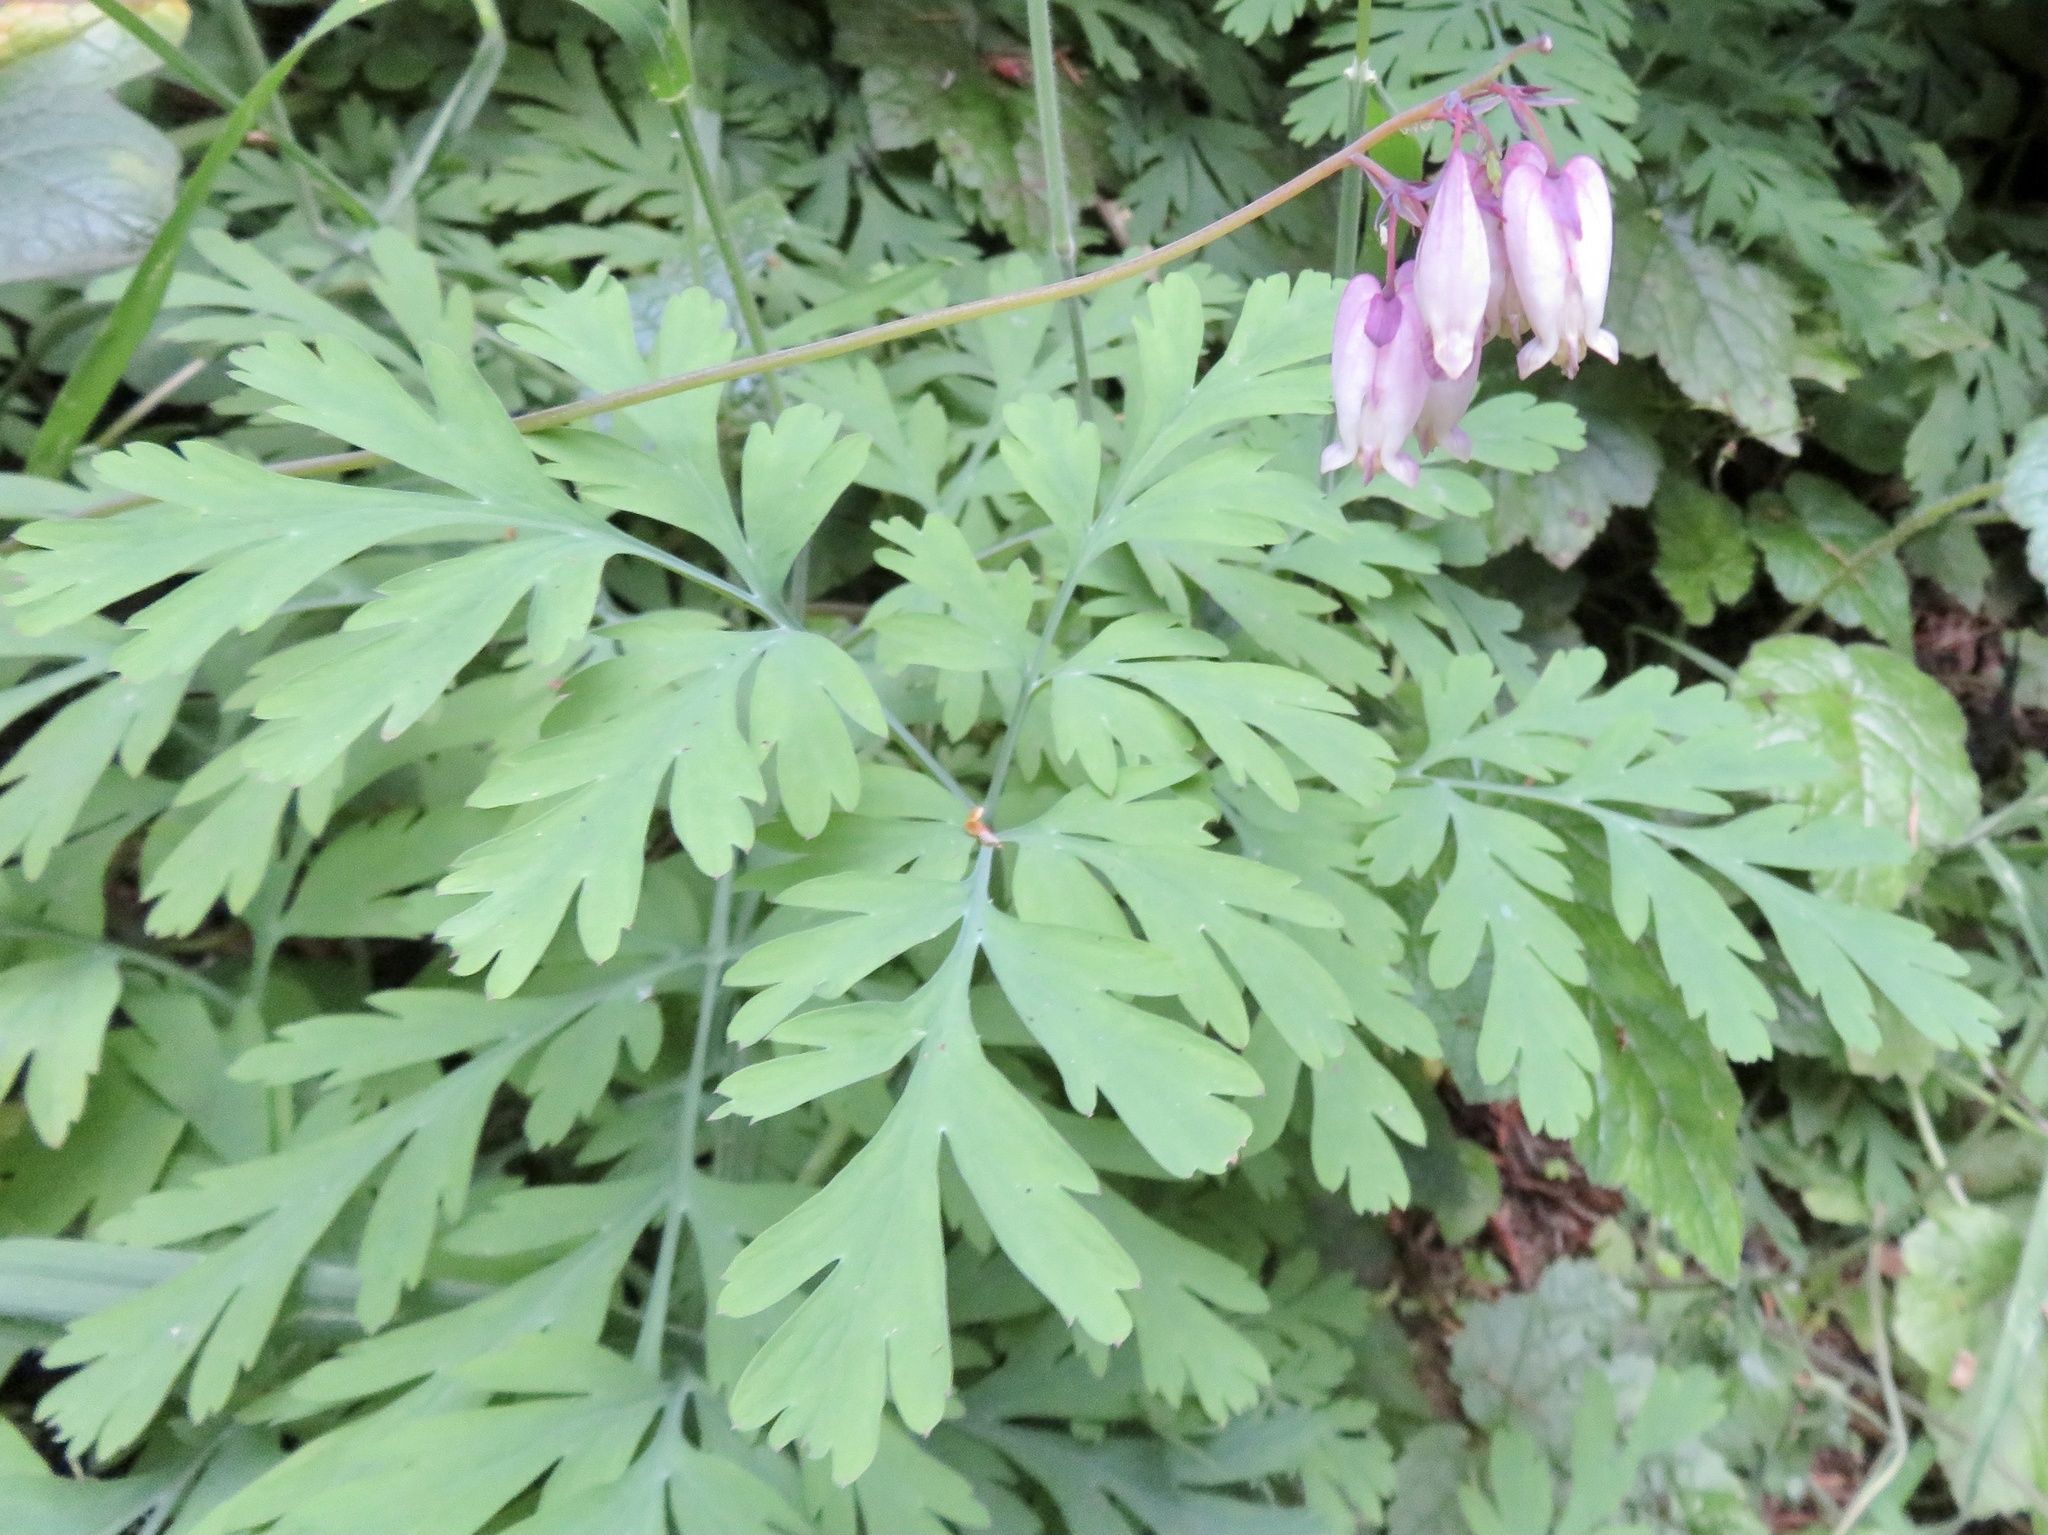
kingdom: Plantae
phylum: Tracheophyta
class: Magnoliopsida
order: Ranunculales
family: Papaveraceae
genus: Dicentra
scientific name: Dicentra formosa
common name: Bleeding-heart
